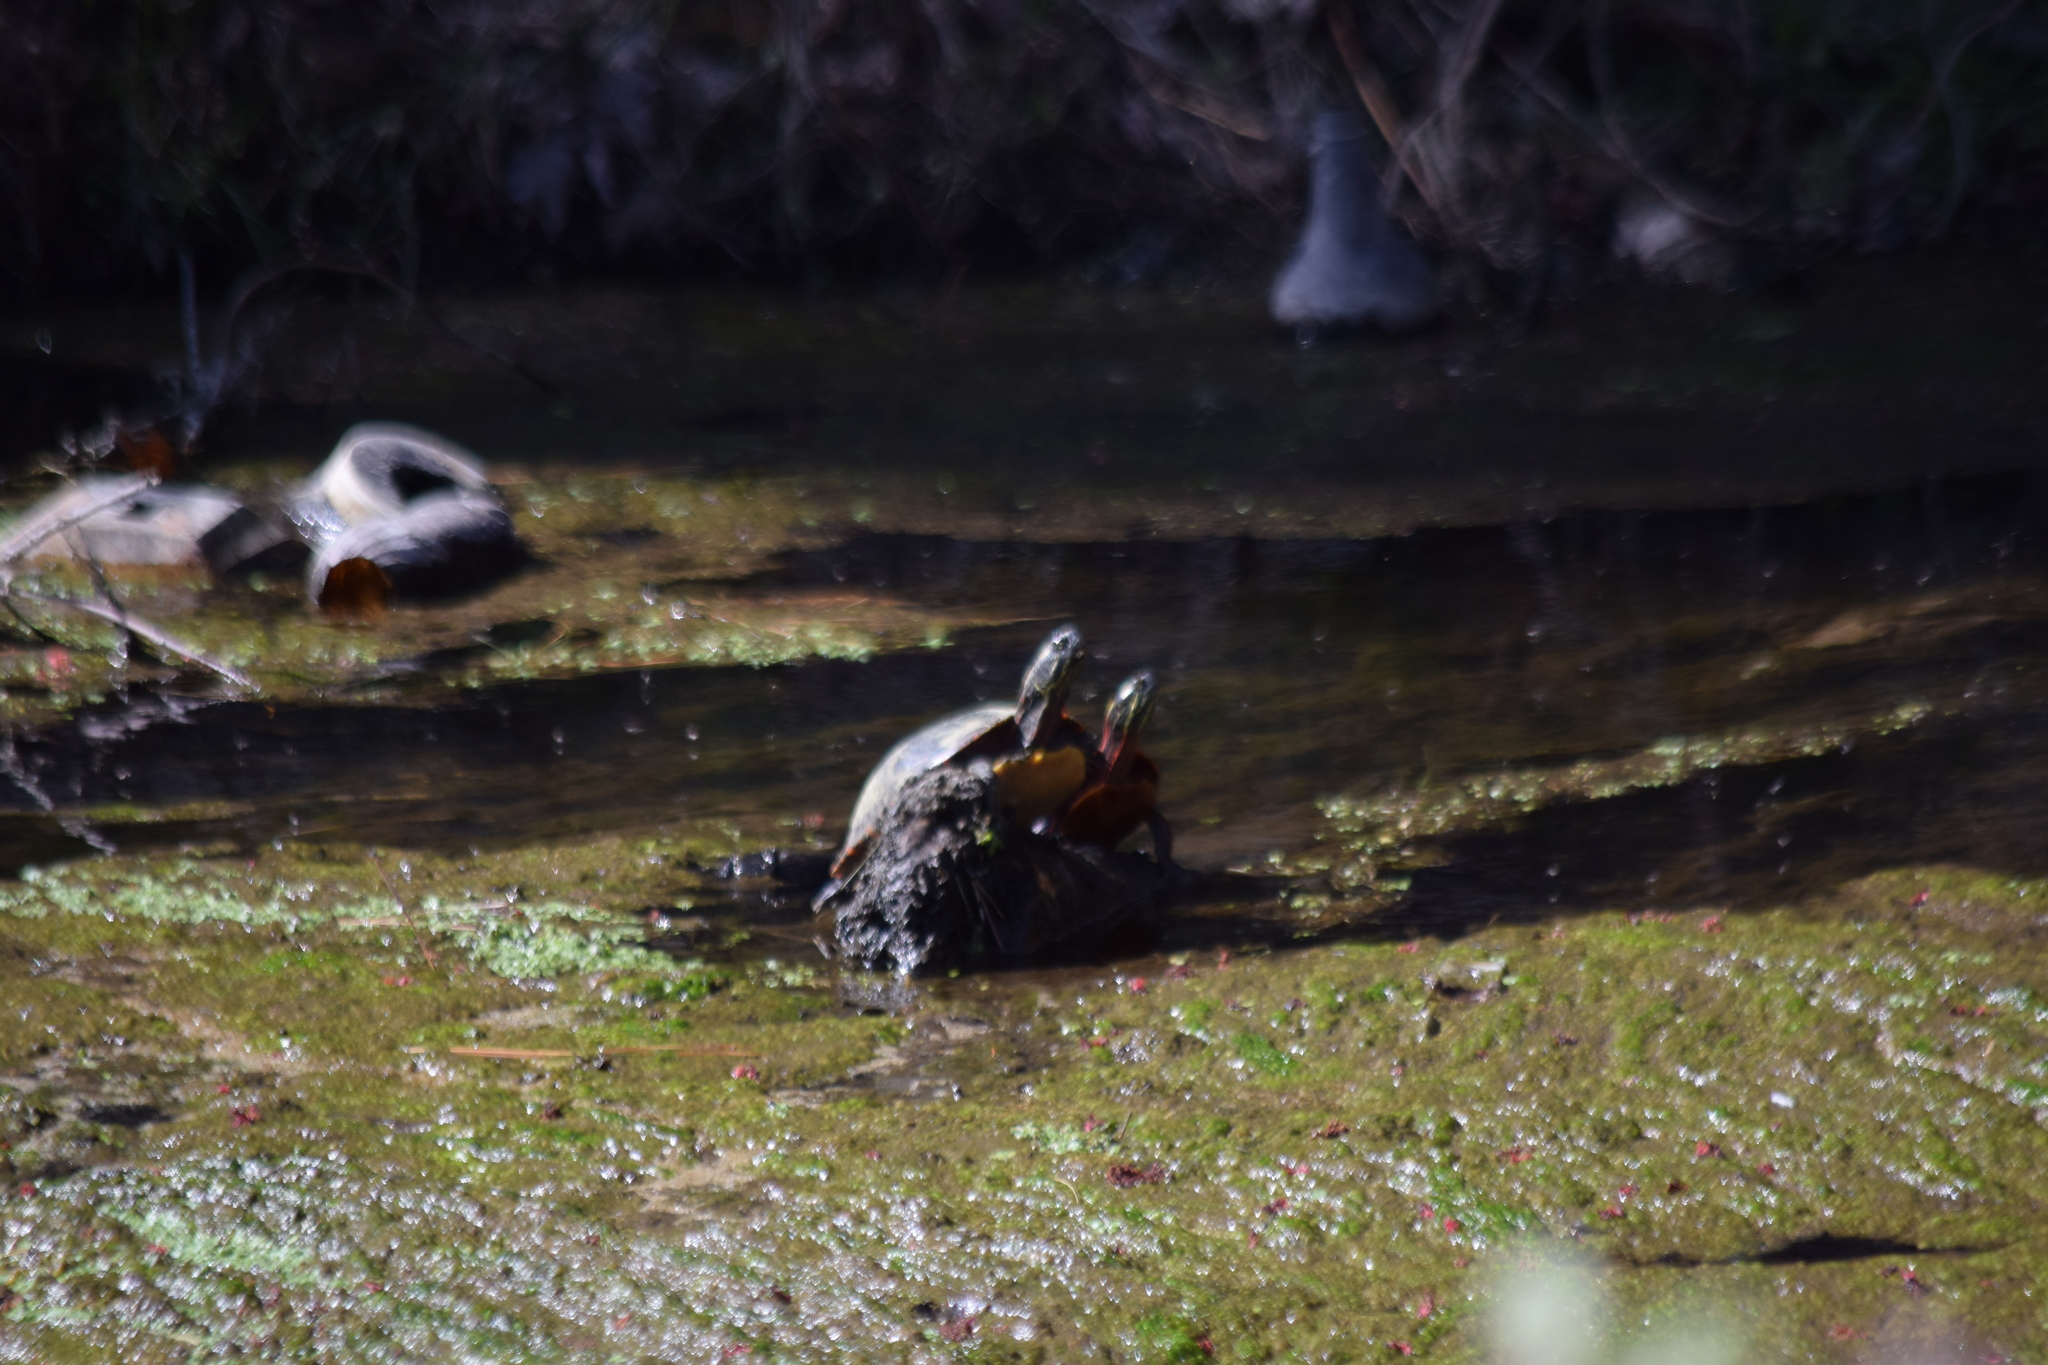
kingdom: Animalia
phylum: Chordata
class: Testudines
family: Emydidae
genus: Chrysemys
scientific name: Chrysemys picta
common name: Painted turtle
